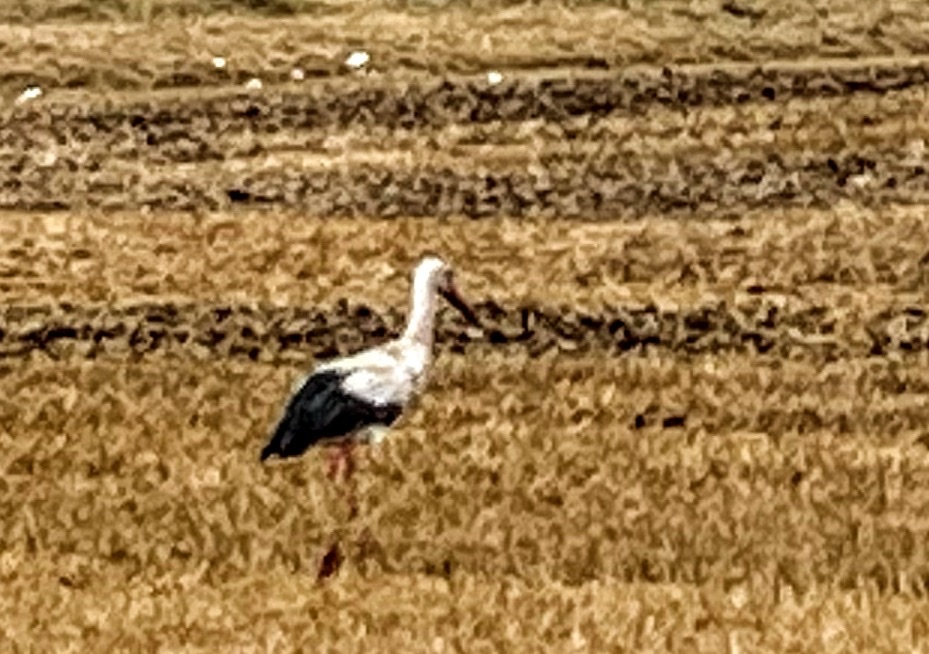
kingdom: Animalia
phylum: Chordata
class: Aves
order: Ciconiiformes
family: Ciconiidae
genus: Ciconia
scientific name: Ciconia ciconia
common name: White stork
